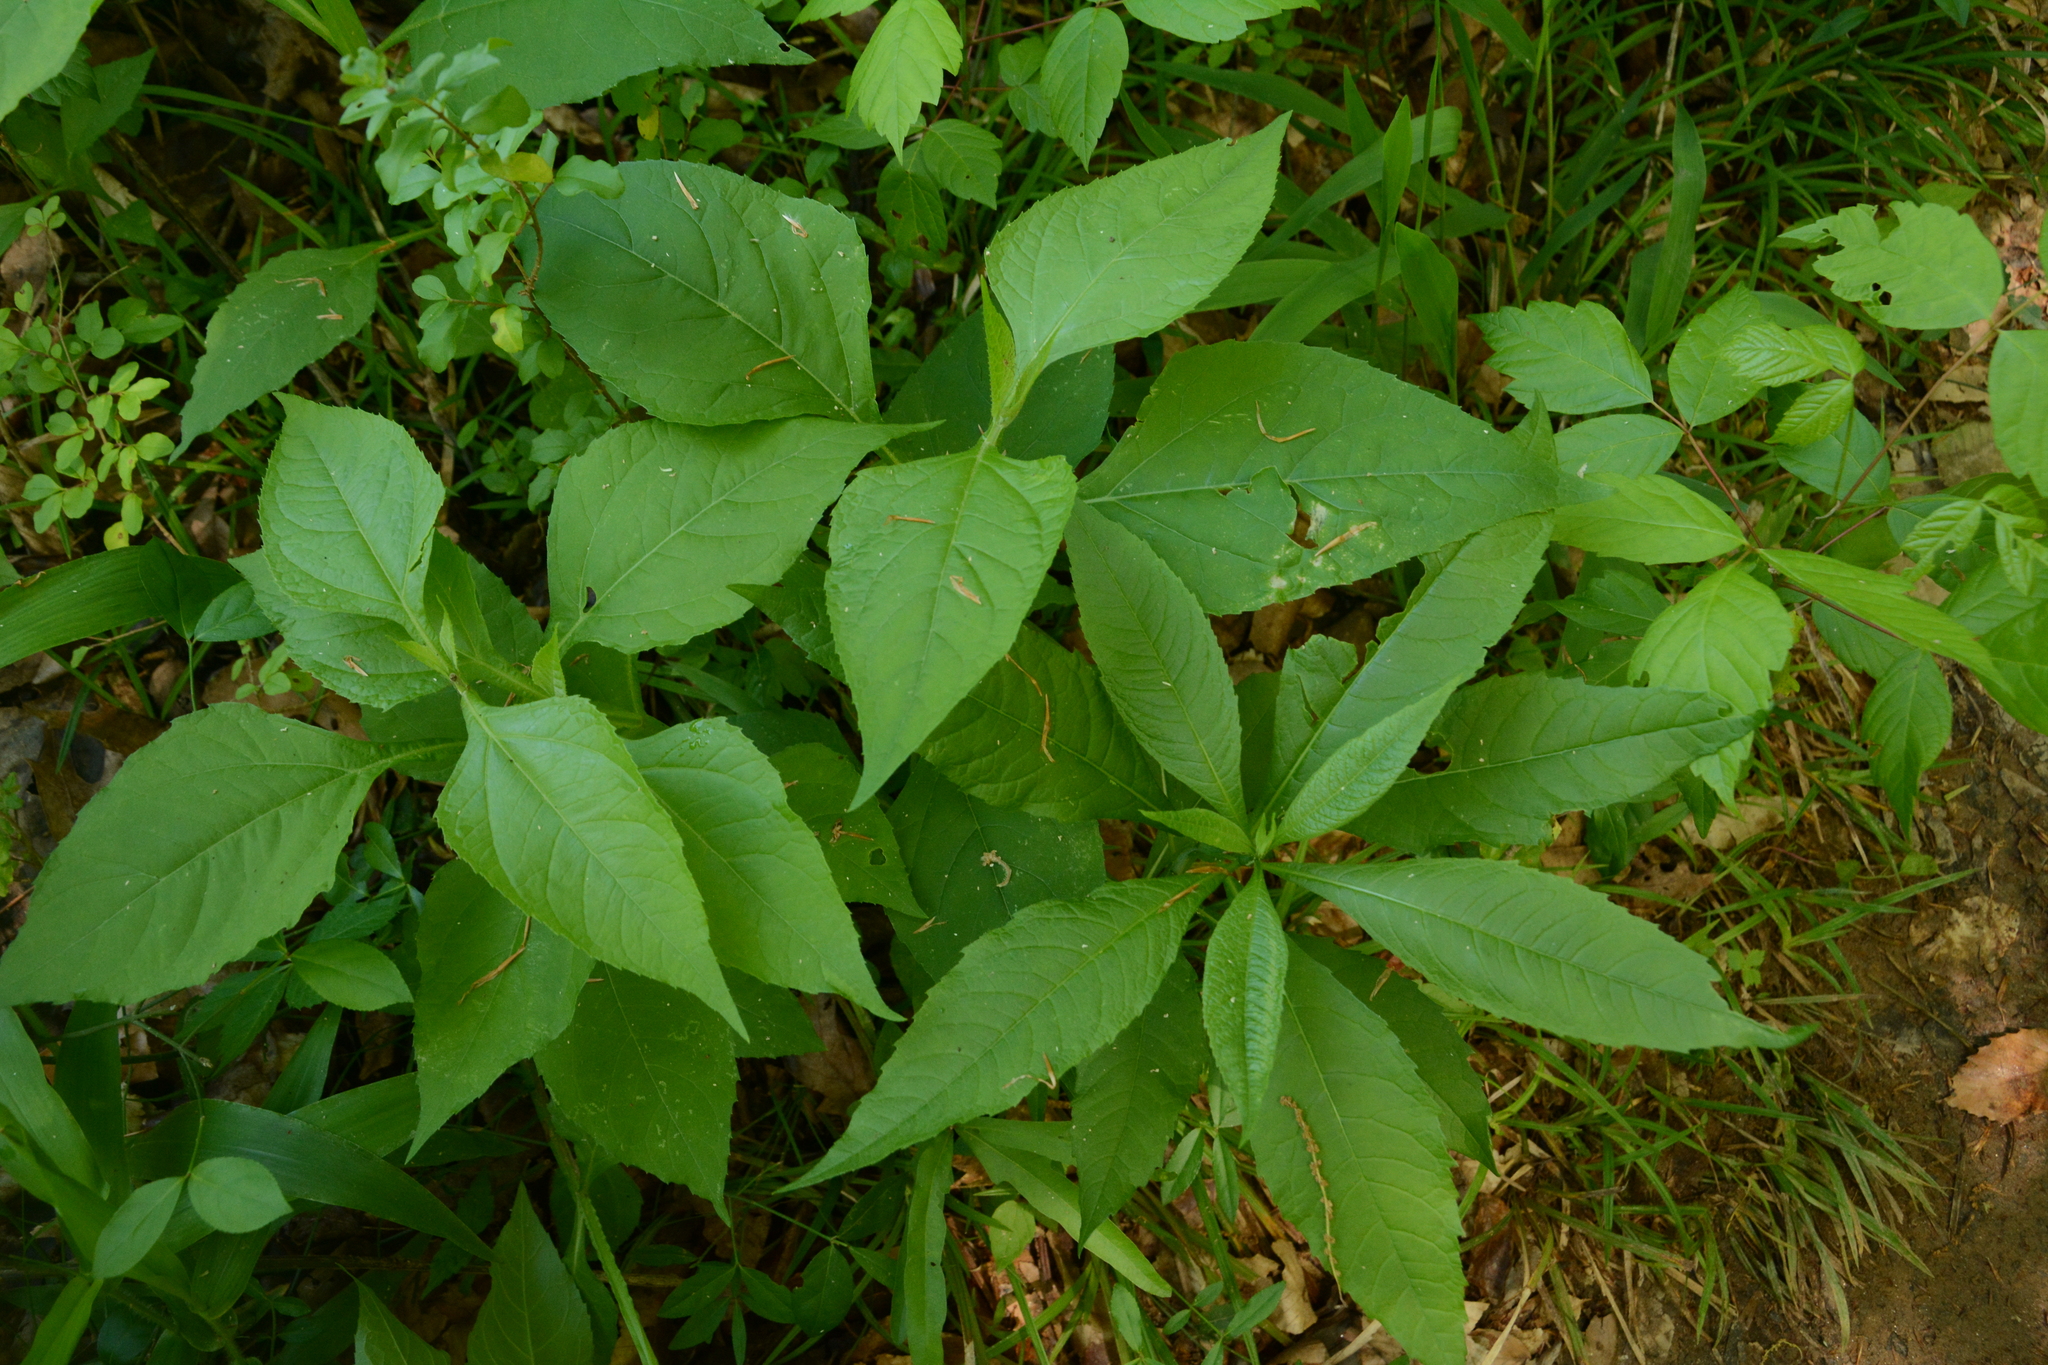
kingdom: Plantae
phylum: Tracheophyta
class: Magnoliopsida
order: Asterales
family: Asteraceae
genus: Verbesina
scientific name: Verbesina occidentalis
